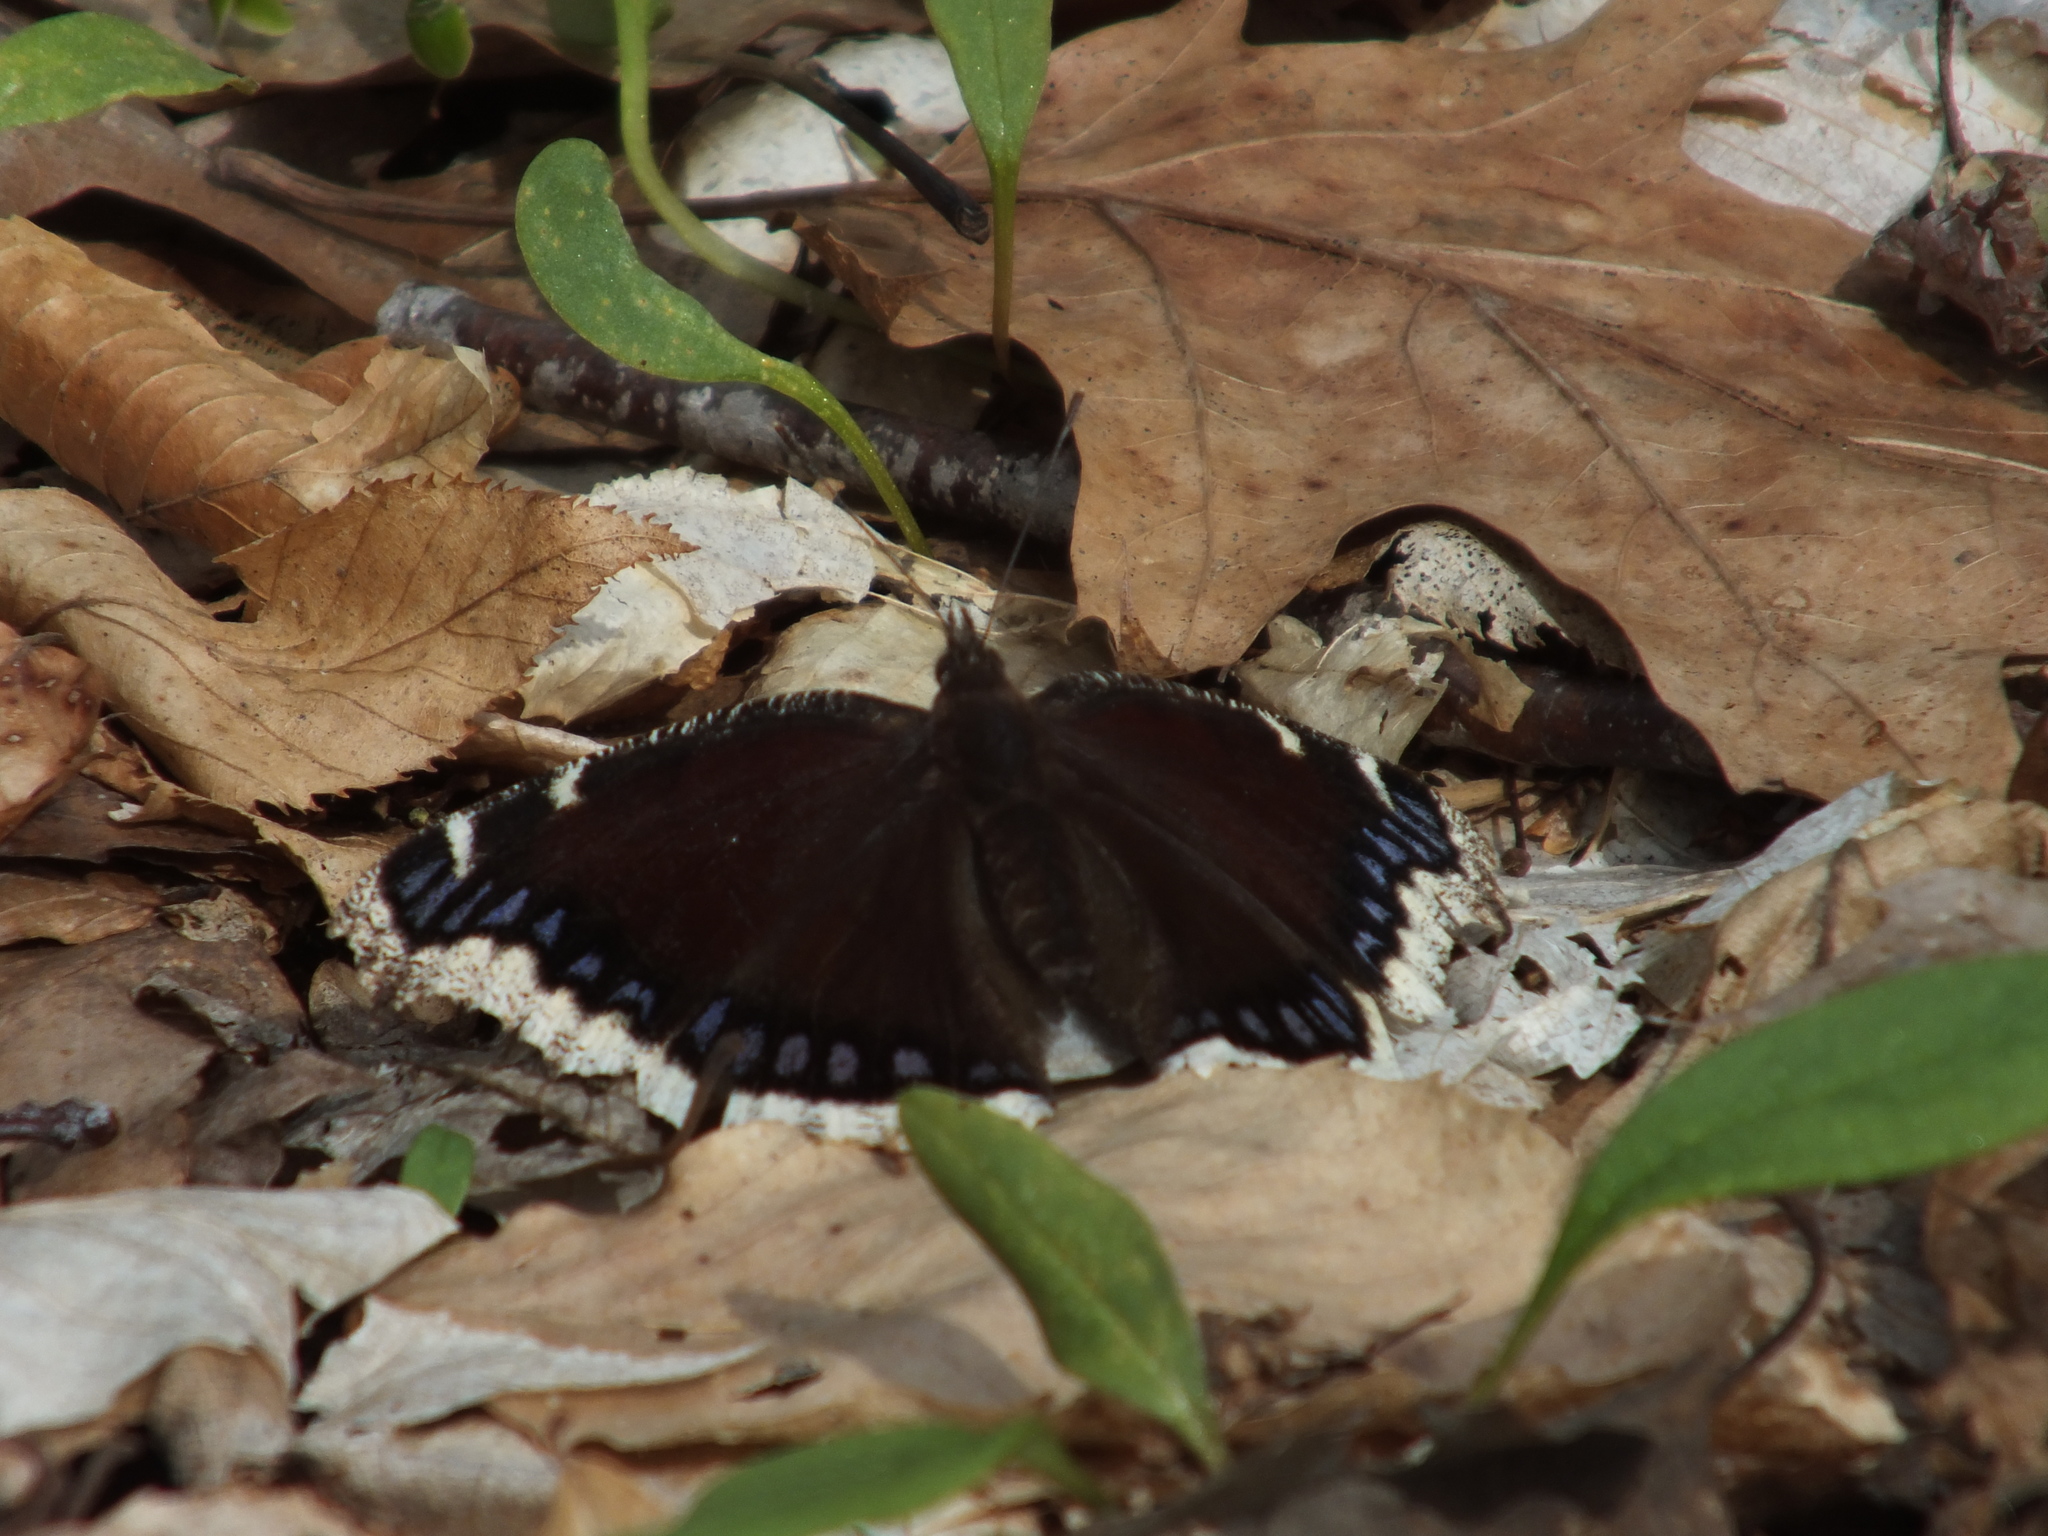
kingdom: Animalia
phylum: Arthropoda
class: Insecta
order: Lepidoptera
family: Nymphalidae
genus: Nymphalis
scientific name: Nymphalis antiopa
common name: Camberwell beauty
